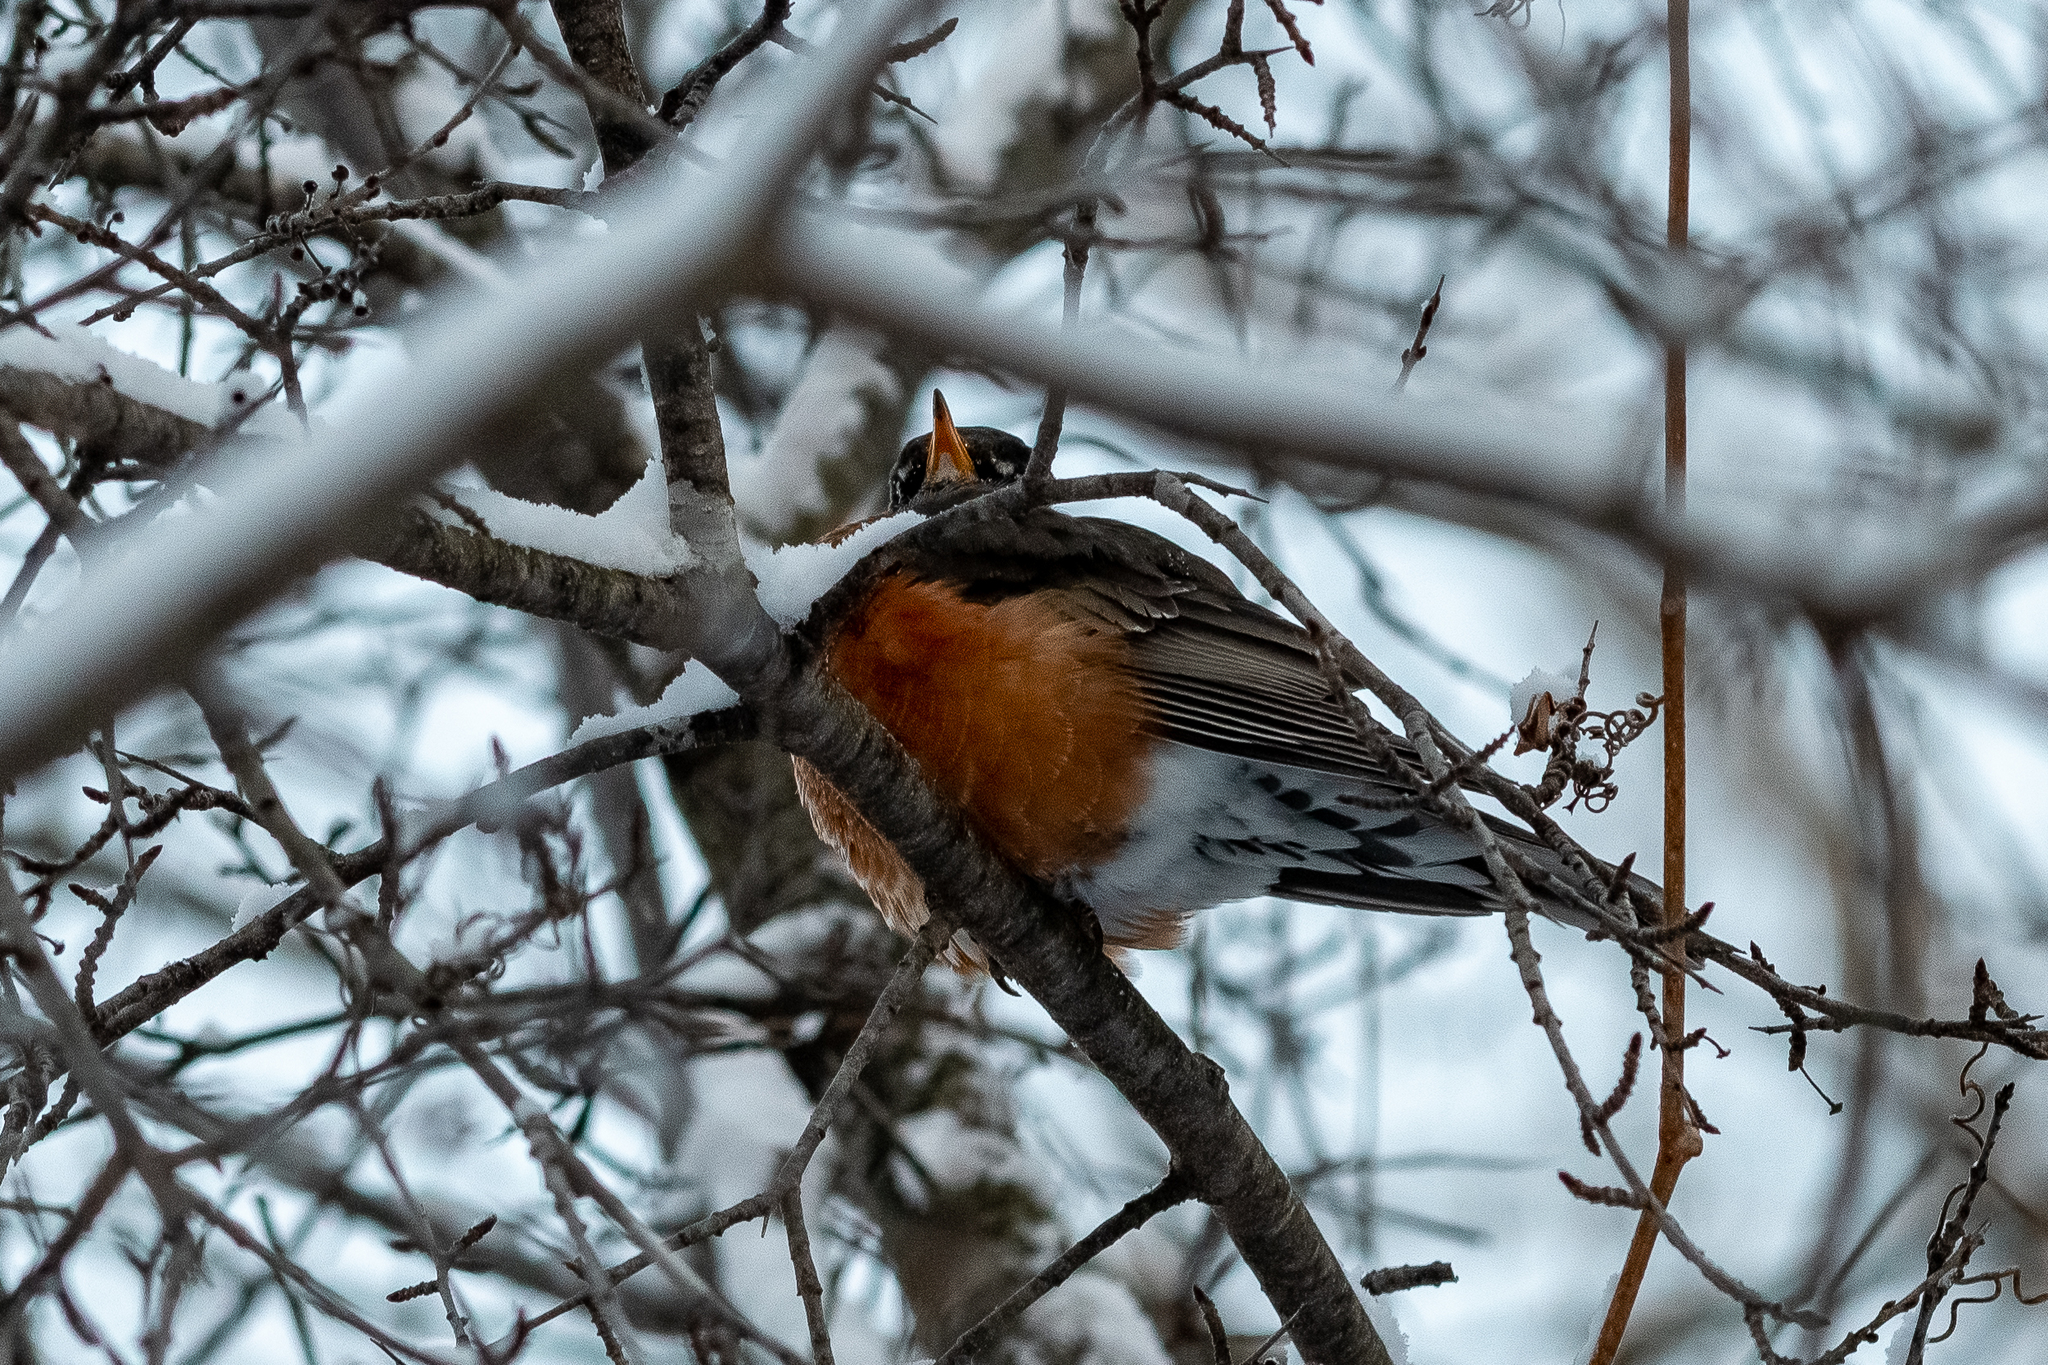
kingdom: Animalia
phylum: Chordata
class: Aves
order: Passeriformes
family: Turdidae
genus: Turdus
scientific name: Turdus migratorius
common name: American robin
